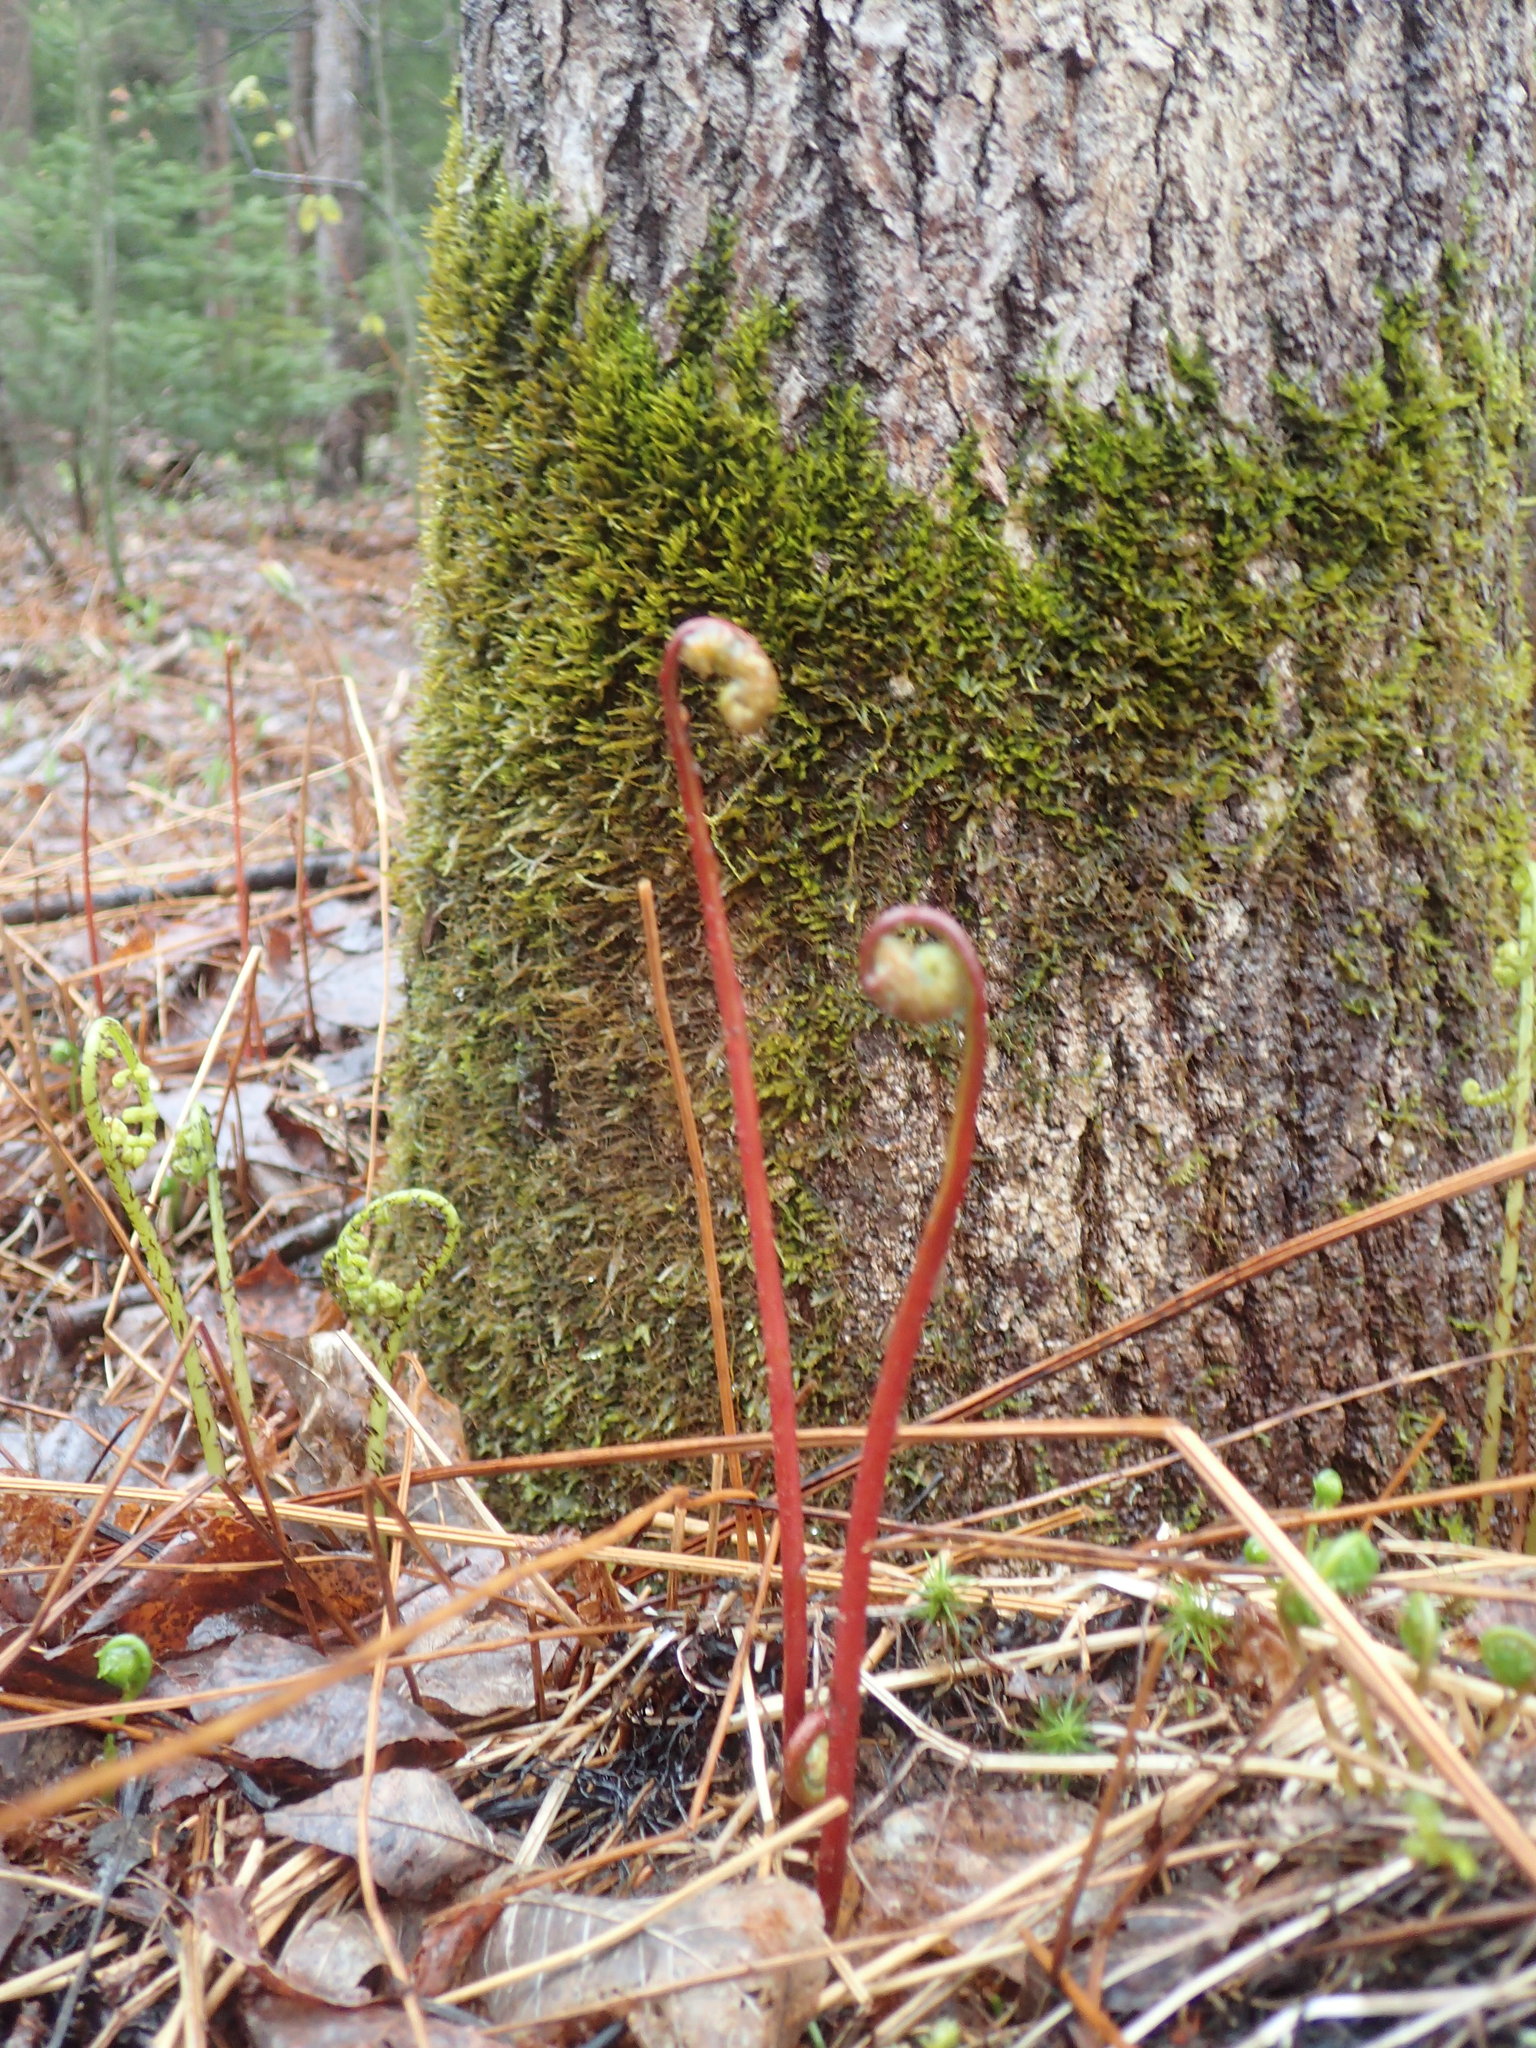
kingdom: Plantae
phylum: Tracheophyta
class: Polypodiopsida
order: Polypodiales
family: Onocleaceae
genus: Onoclea
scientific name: Onoclea sensibilis
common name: Sensitive fern
